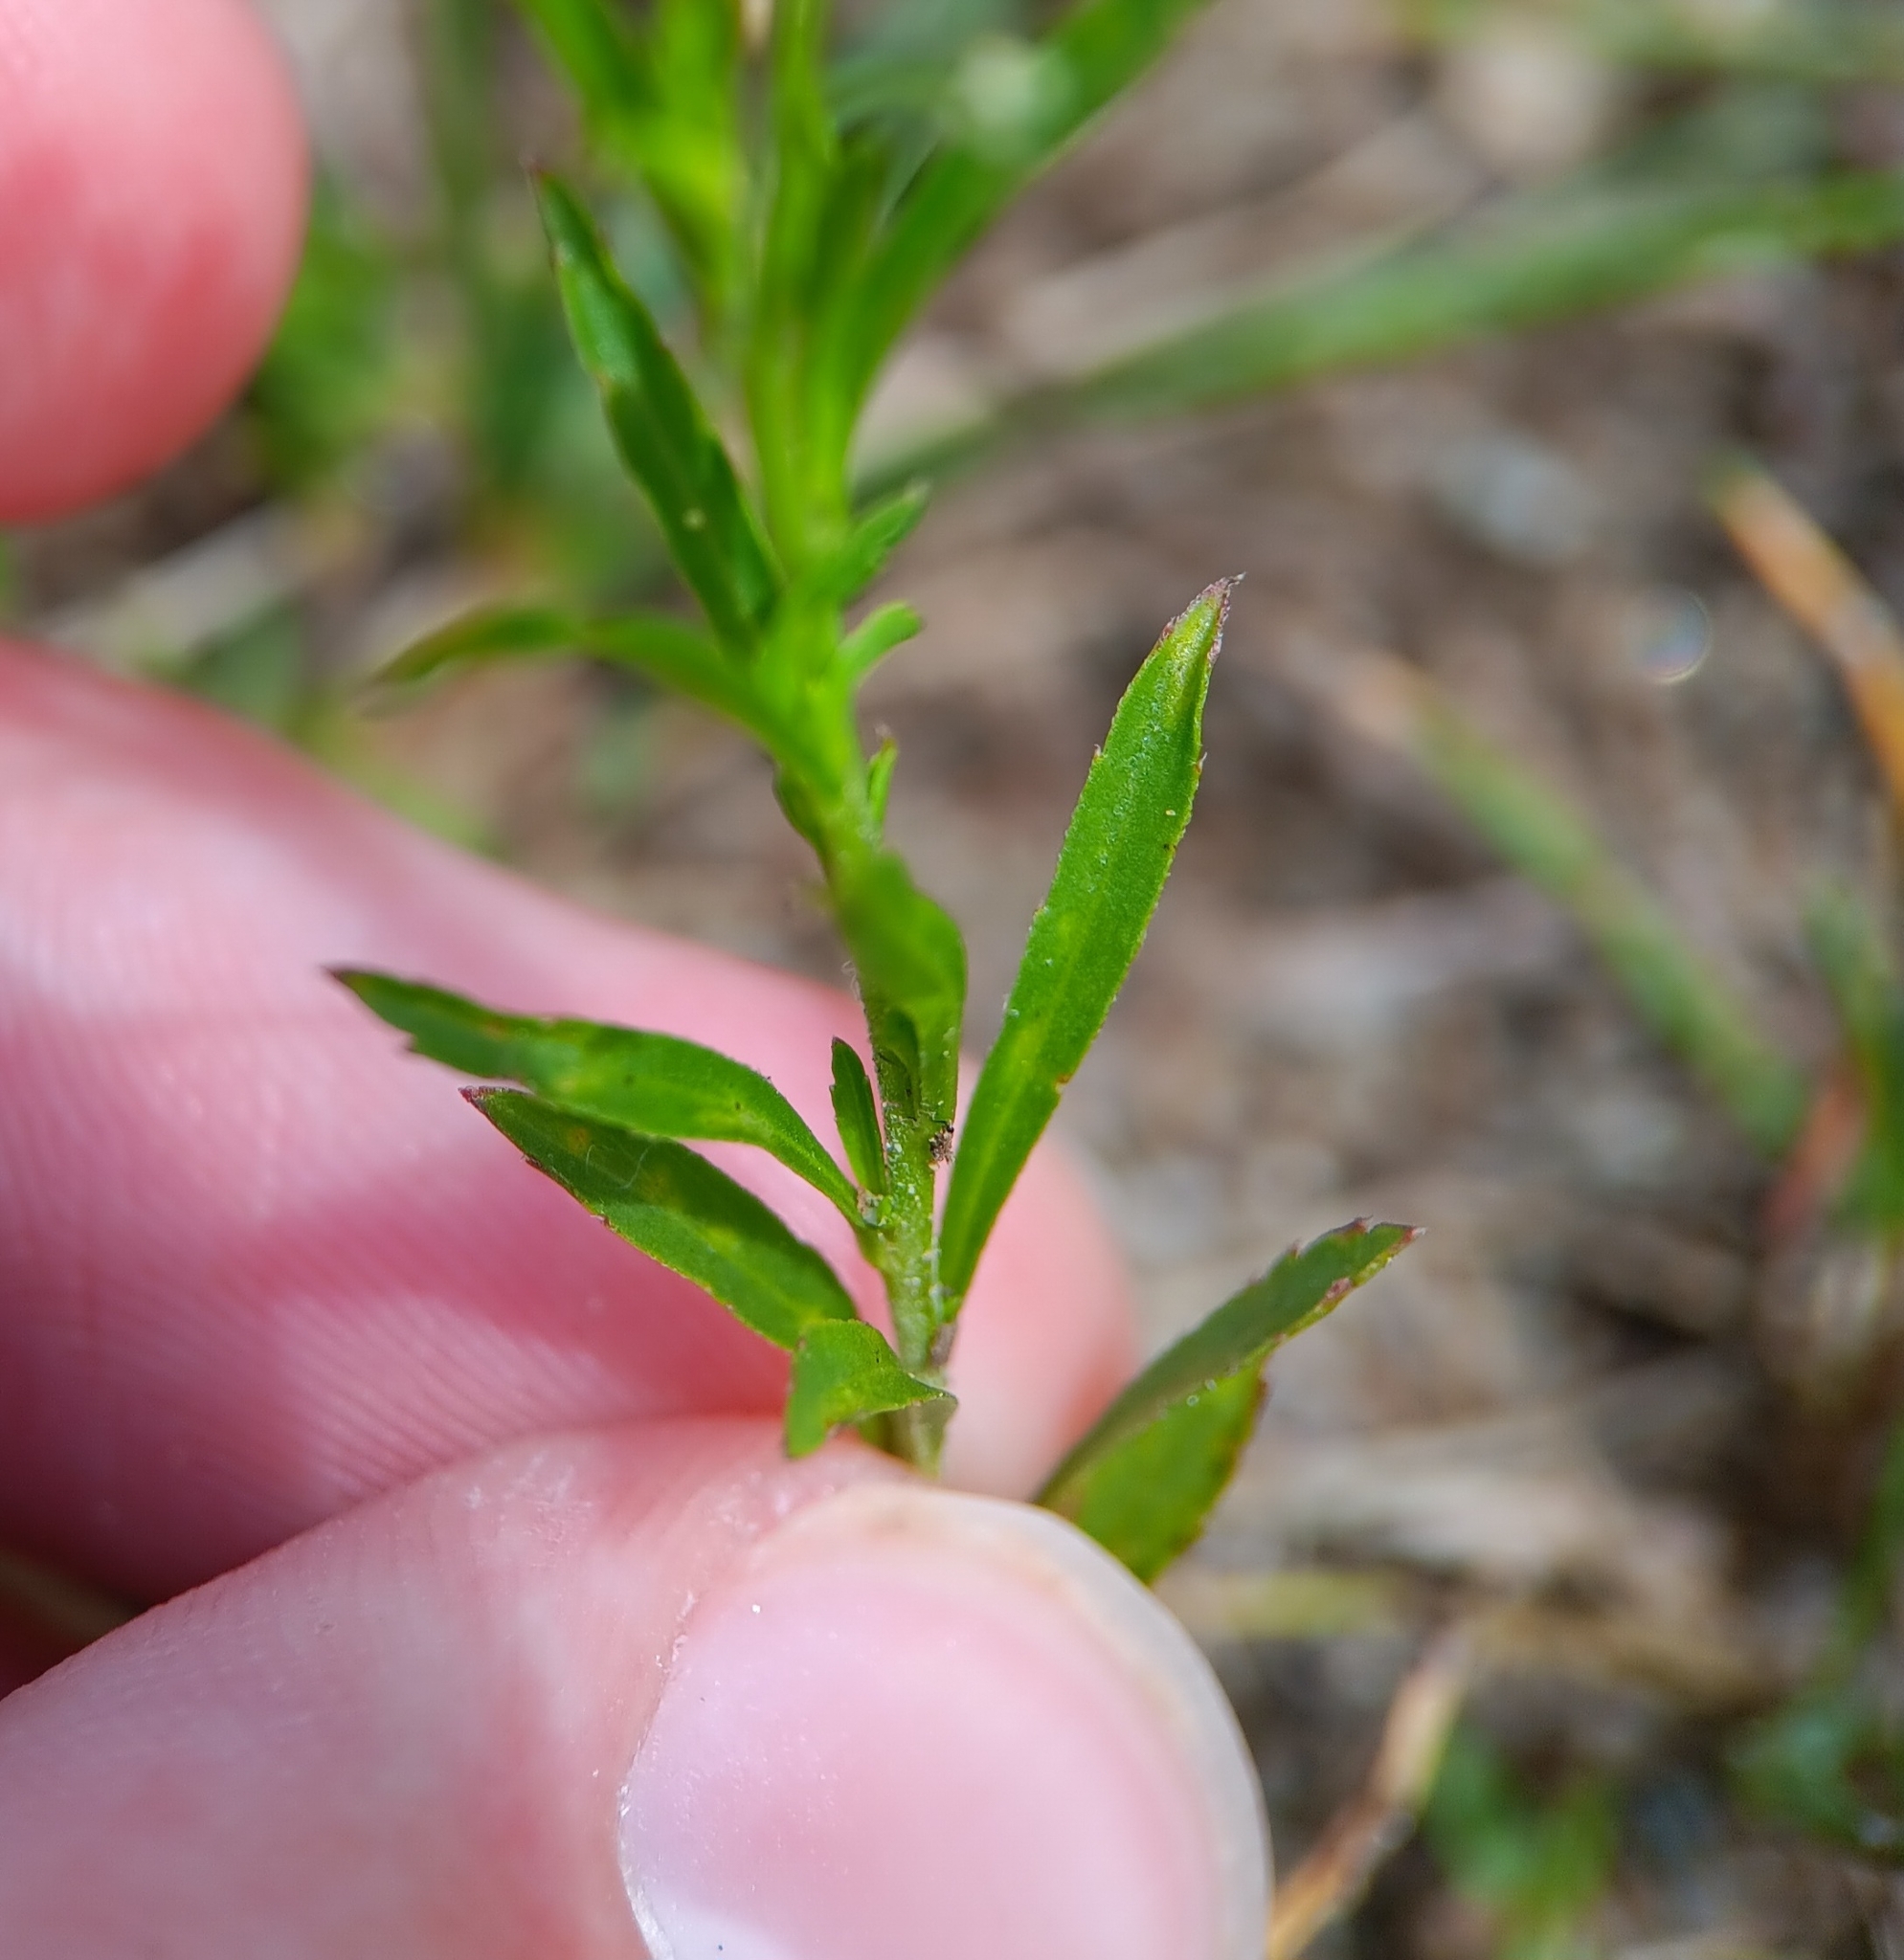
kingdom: Plantae
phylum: Tracheophyta
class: Magnoliopsida
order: Brassicales
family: Brassicaceae
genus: Lepidium
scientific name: Lepidium virginicum
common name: Least pepperwort
